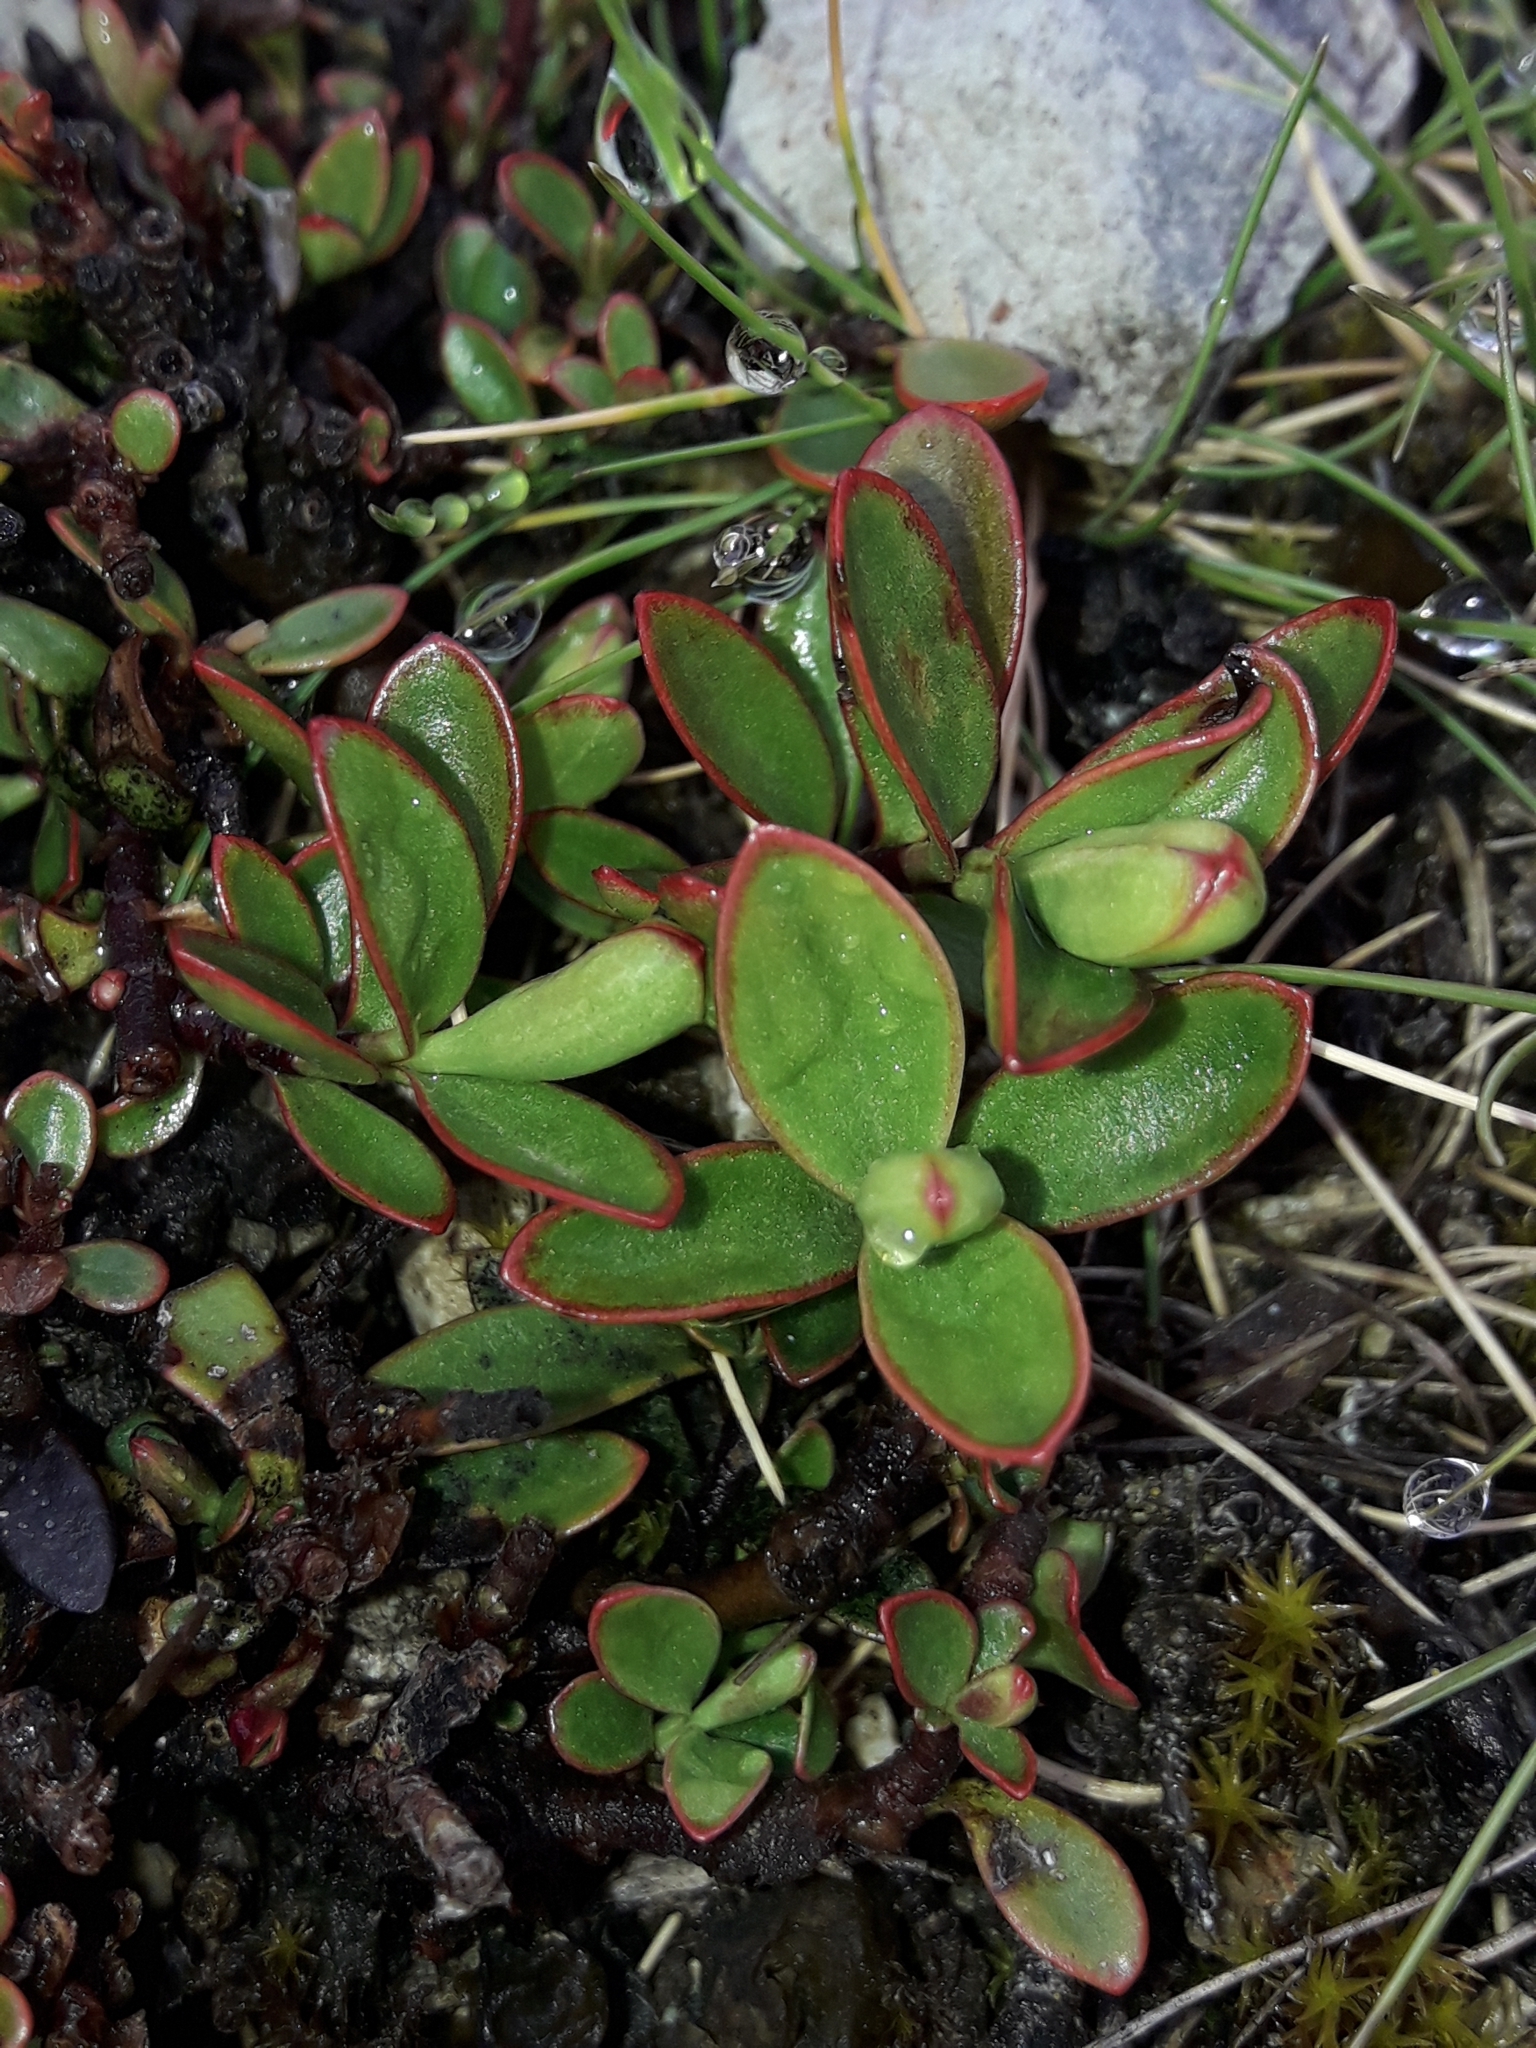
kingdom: Plantae
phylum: Tracheophyta
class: Magnoliopsida
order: Lamiales
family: Plantaginaceae
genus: Veronica
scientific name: Veronica decumbens
